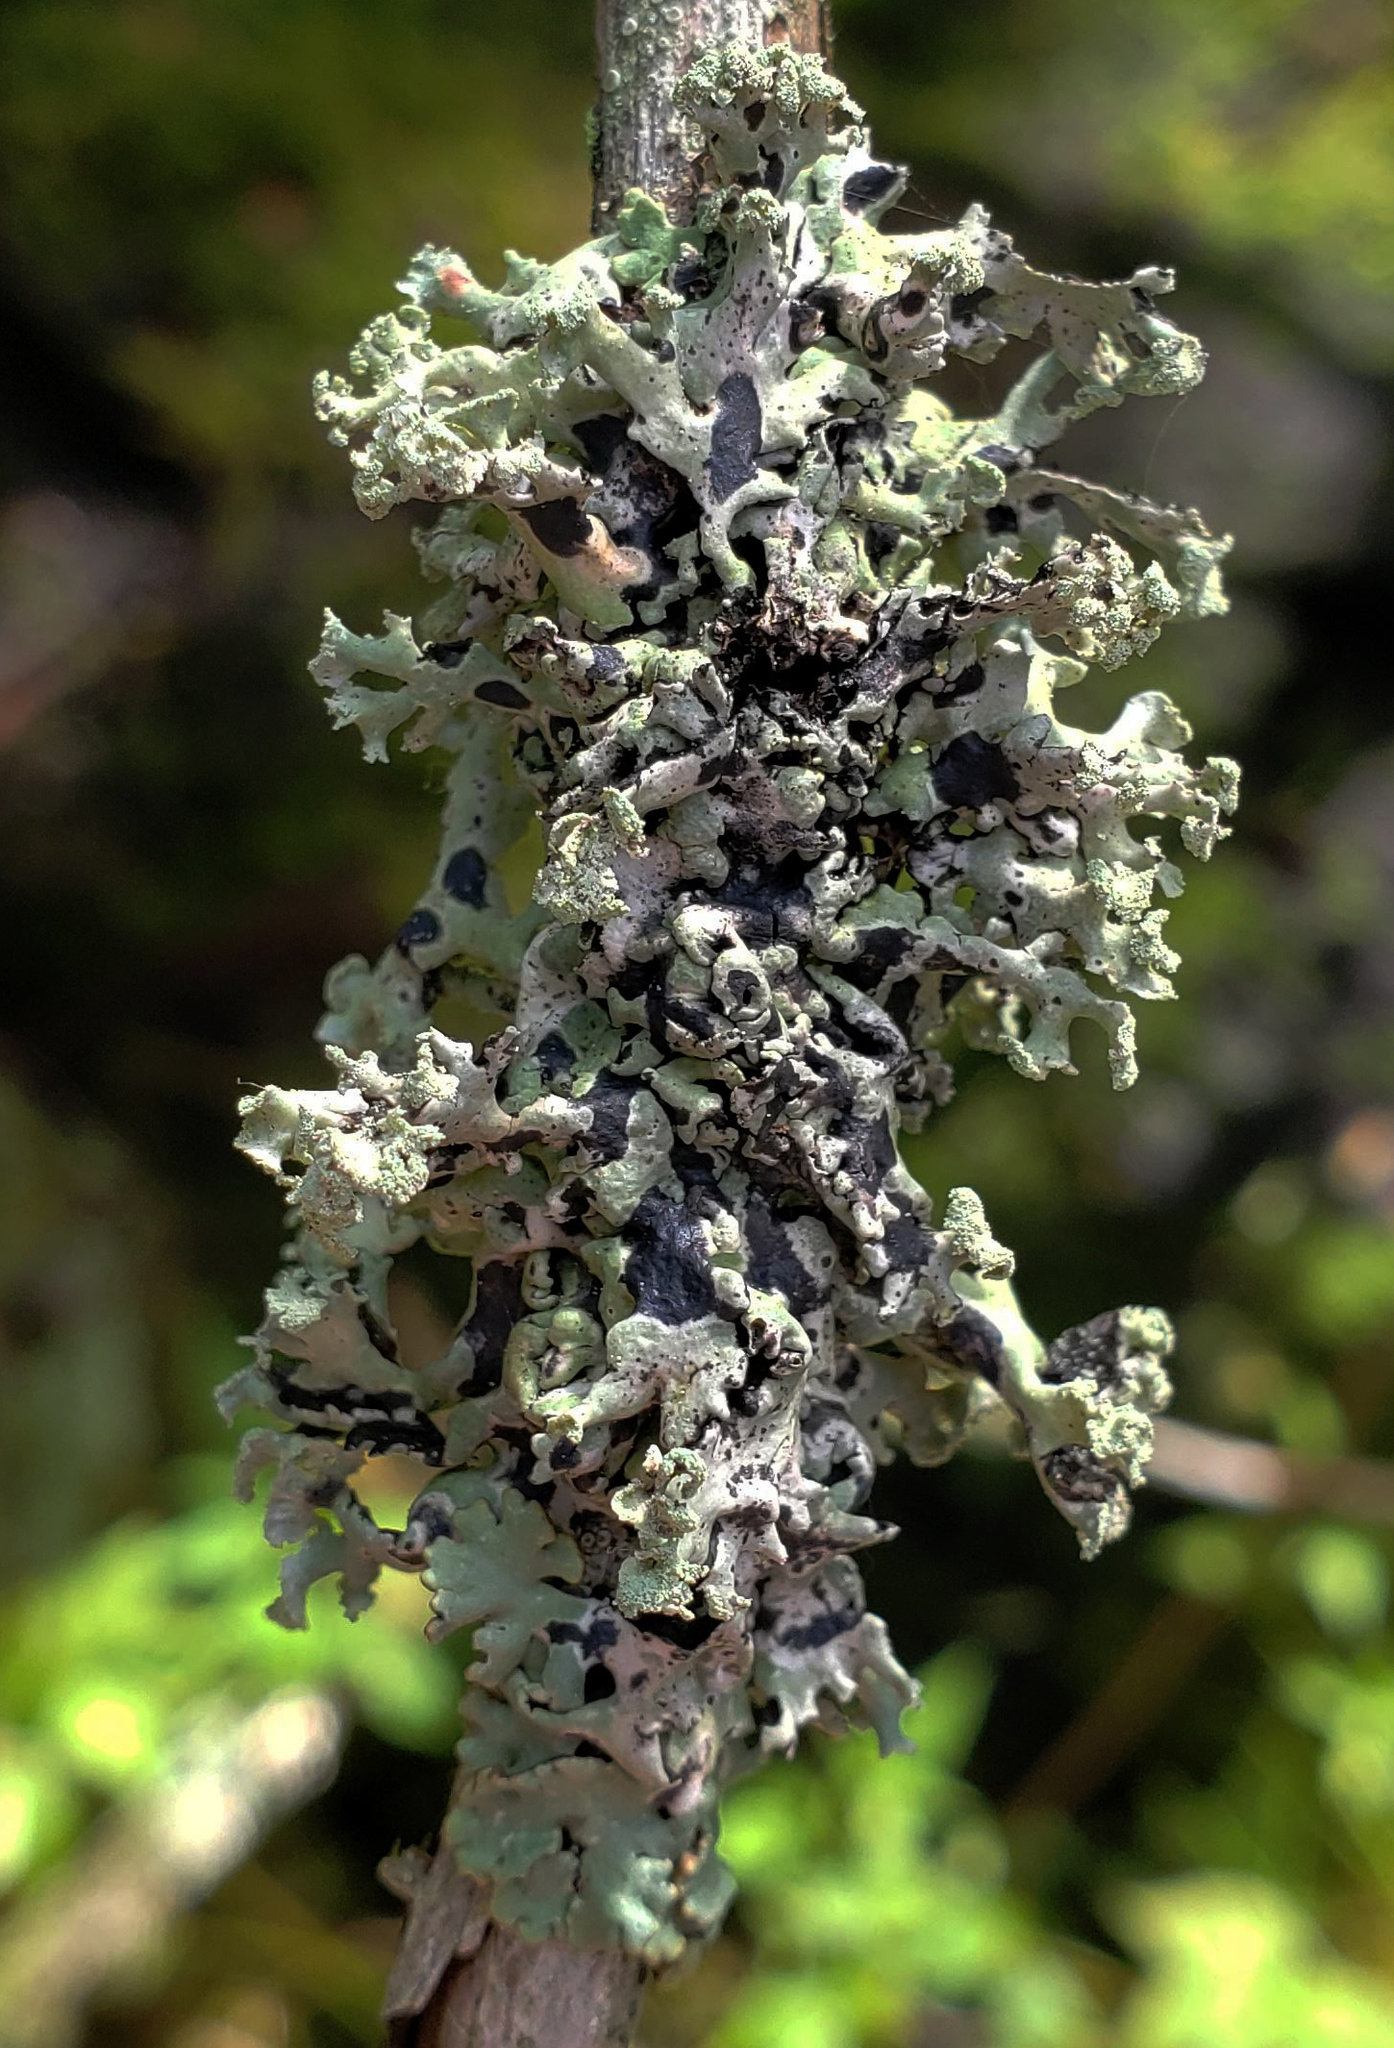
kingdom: Fungi
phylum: Ascomycota
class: Lecanoromycetes
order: Lecanorales
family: Parmeliaceae
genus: Hypogymnia
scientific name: Hypogymnia physodes
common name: Dark crottle
